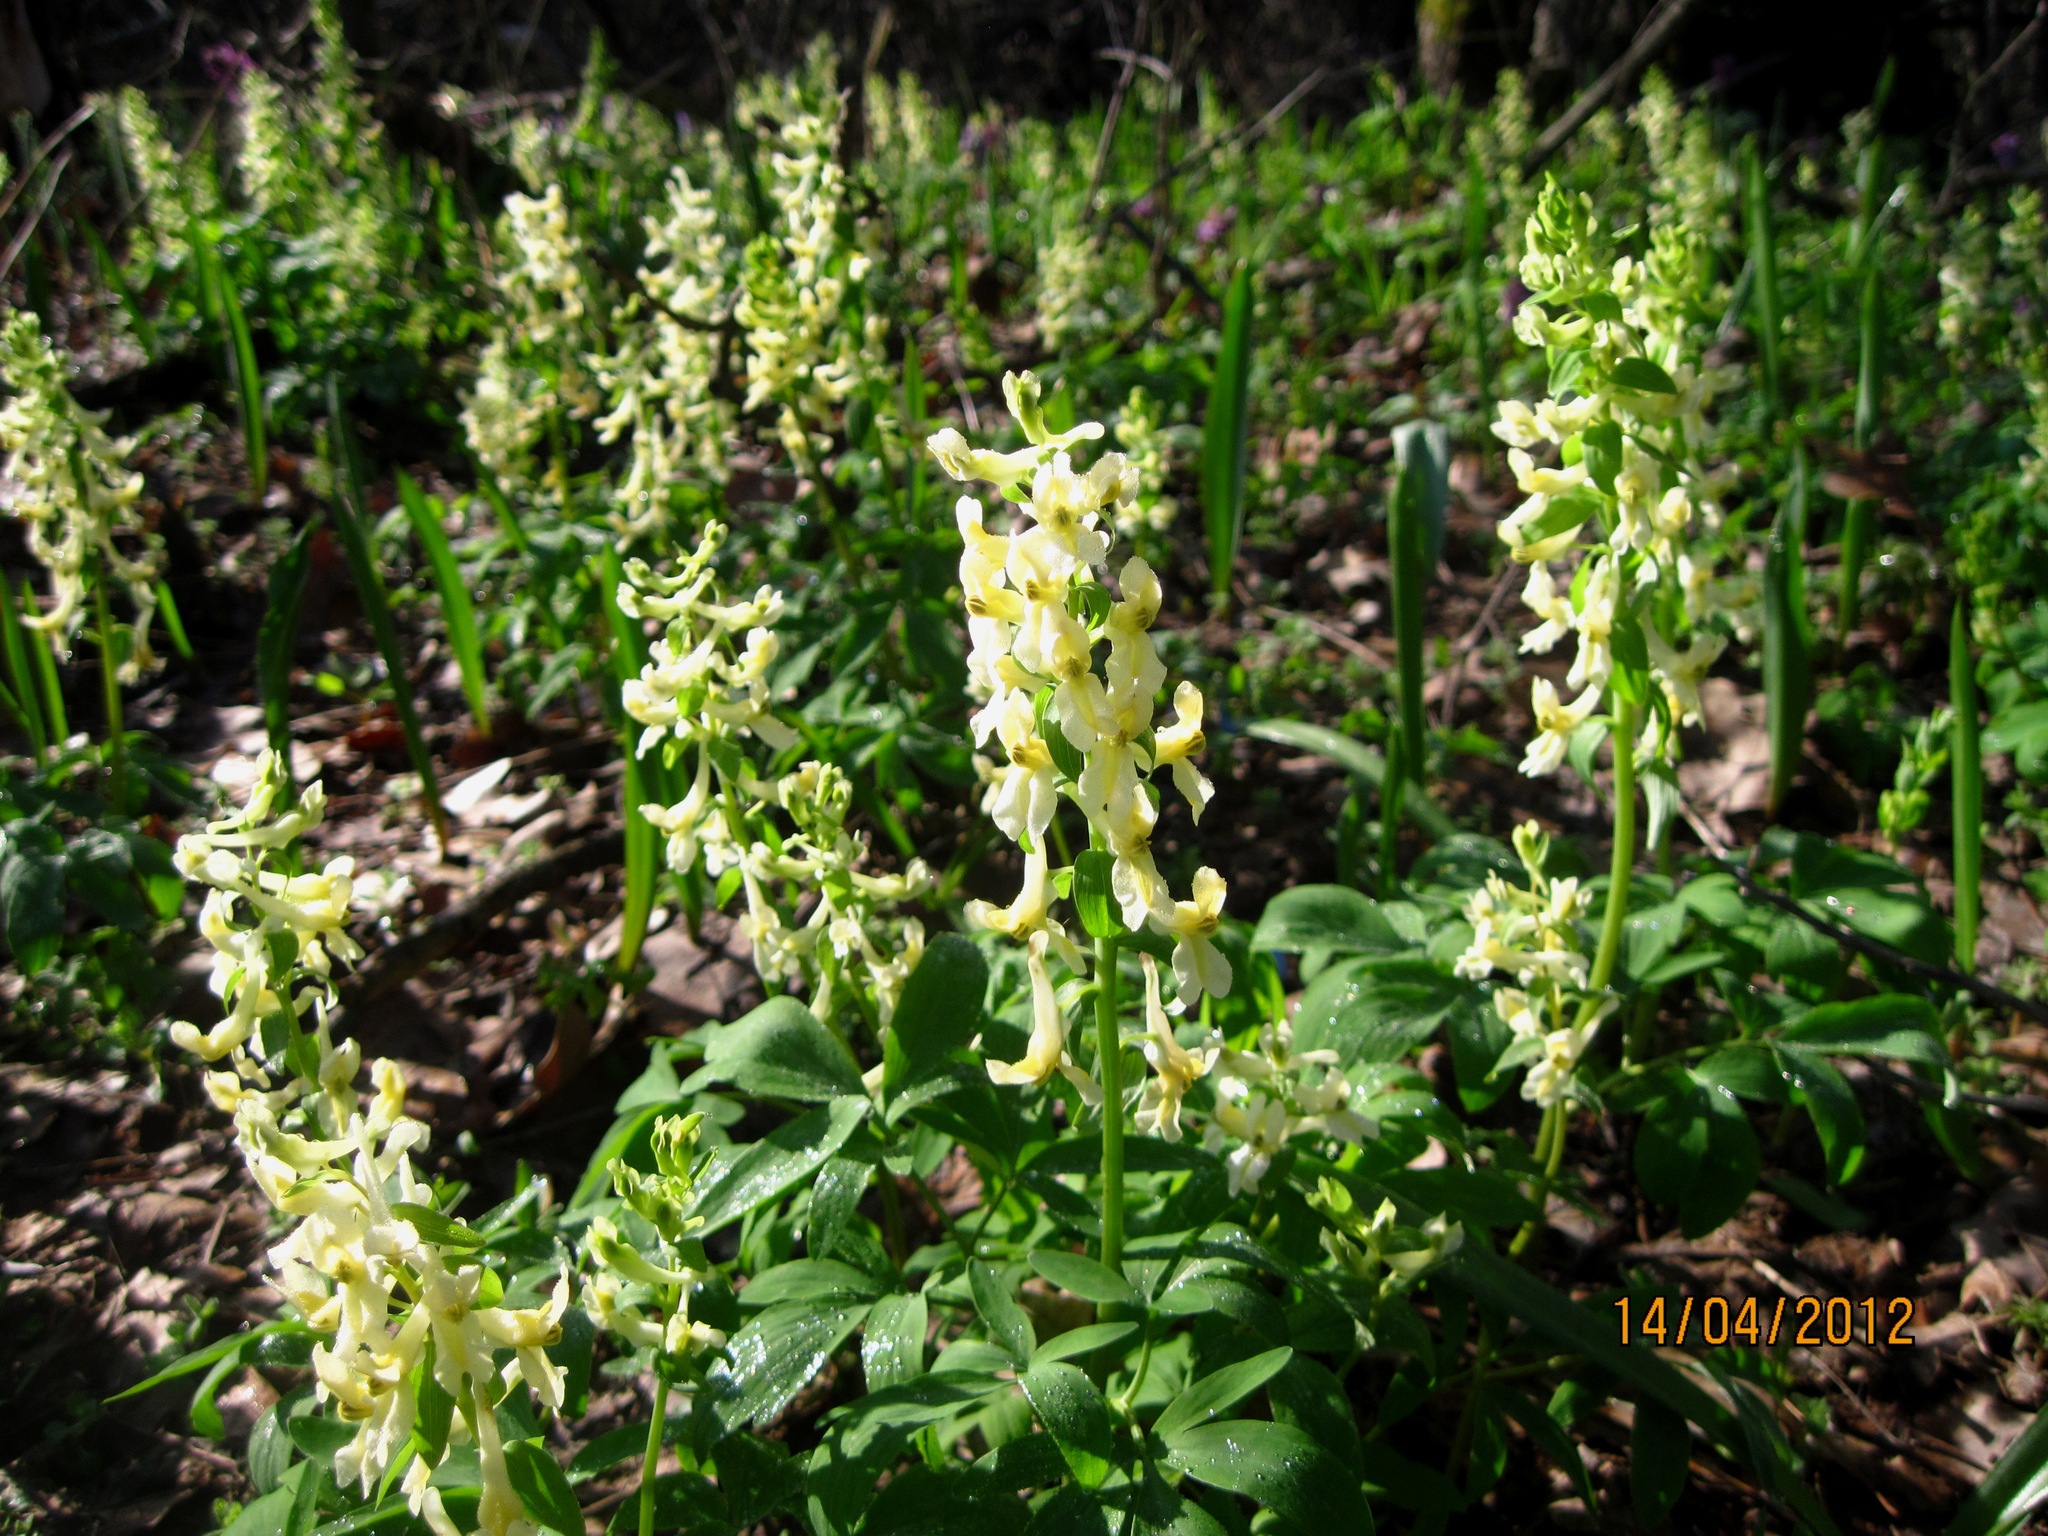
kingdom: Plantae
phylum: Tracheophyta
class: Magnoliopsida
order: Ranunculales
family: Papaveraceae
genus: Corydalis
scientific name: Corydalis cava
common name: Hollowroot
